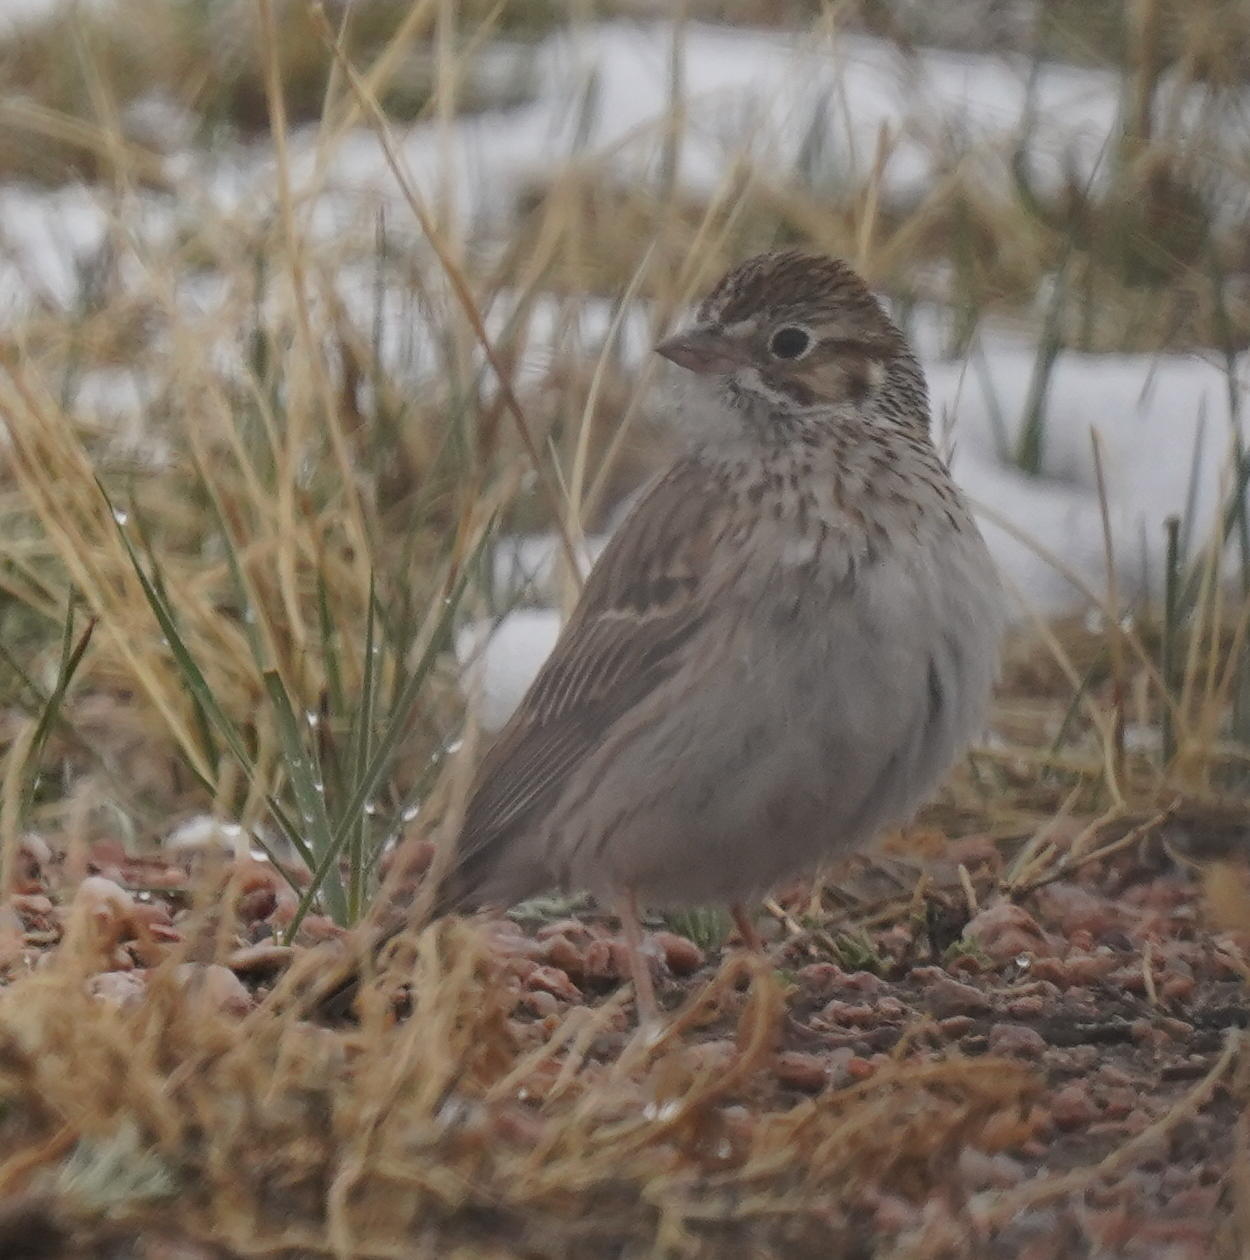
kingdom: Animalia
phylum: Chordata
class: Aves
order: Passeriformes
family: Passerellidae
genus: Pooecetes
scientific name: Pooecetes gramineus
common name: Vesper sparrow
